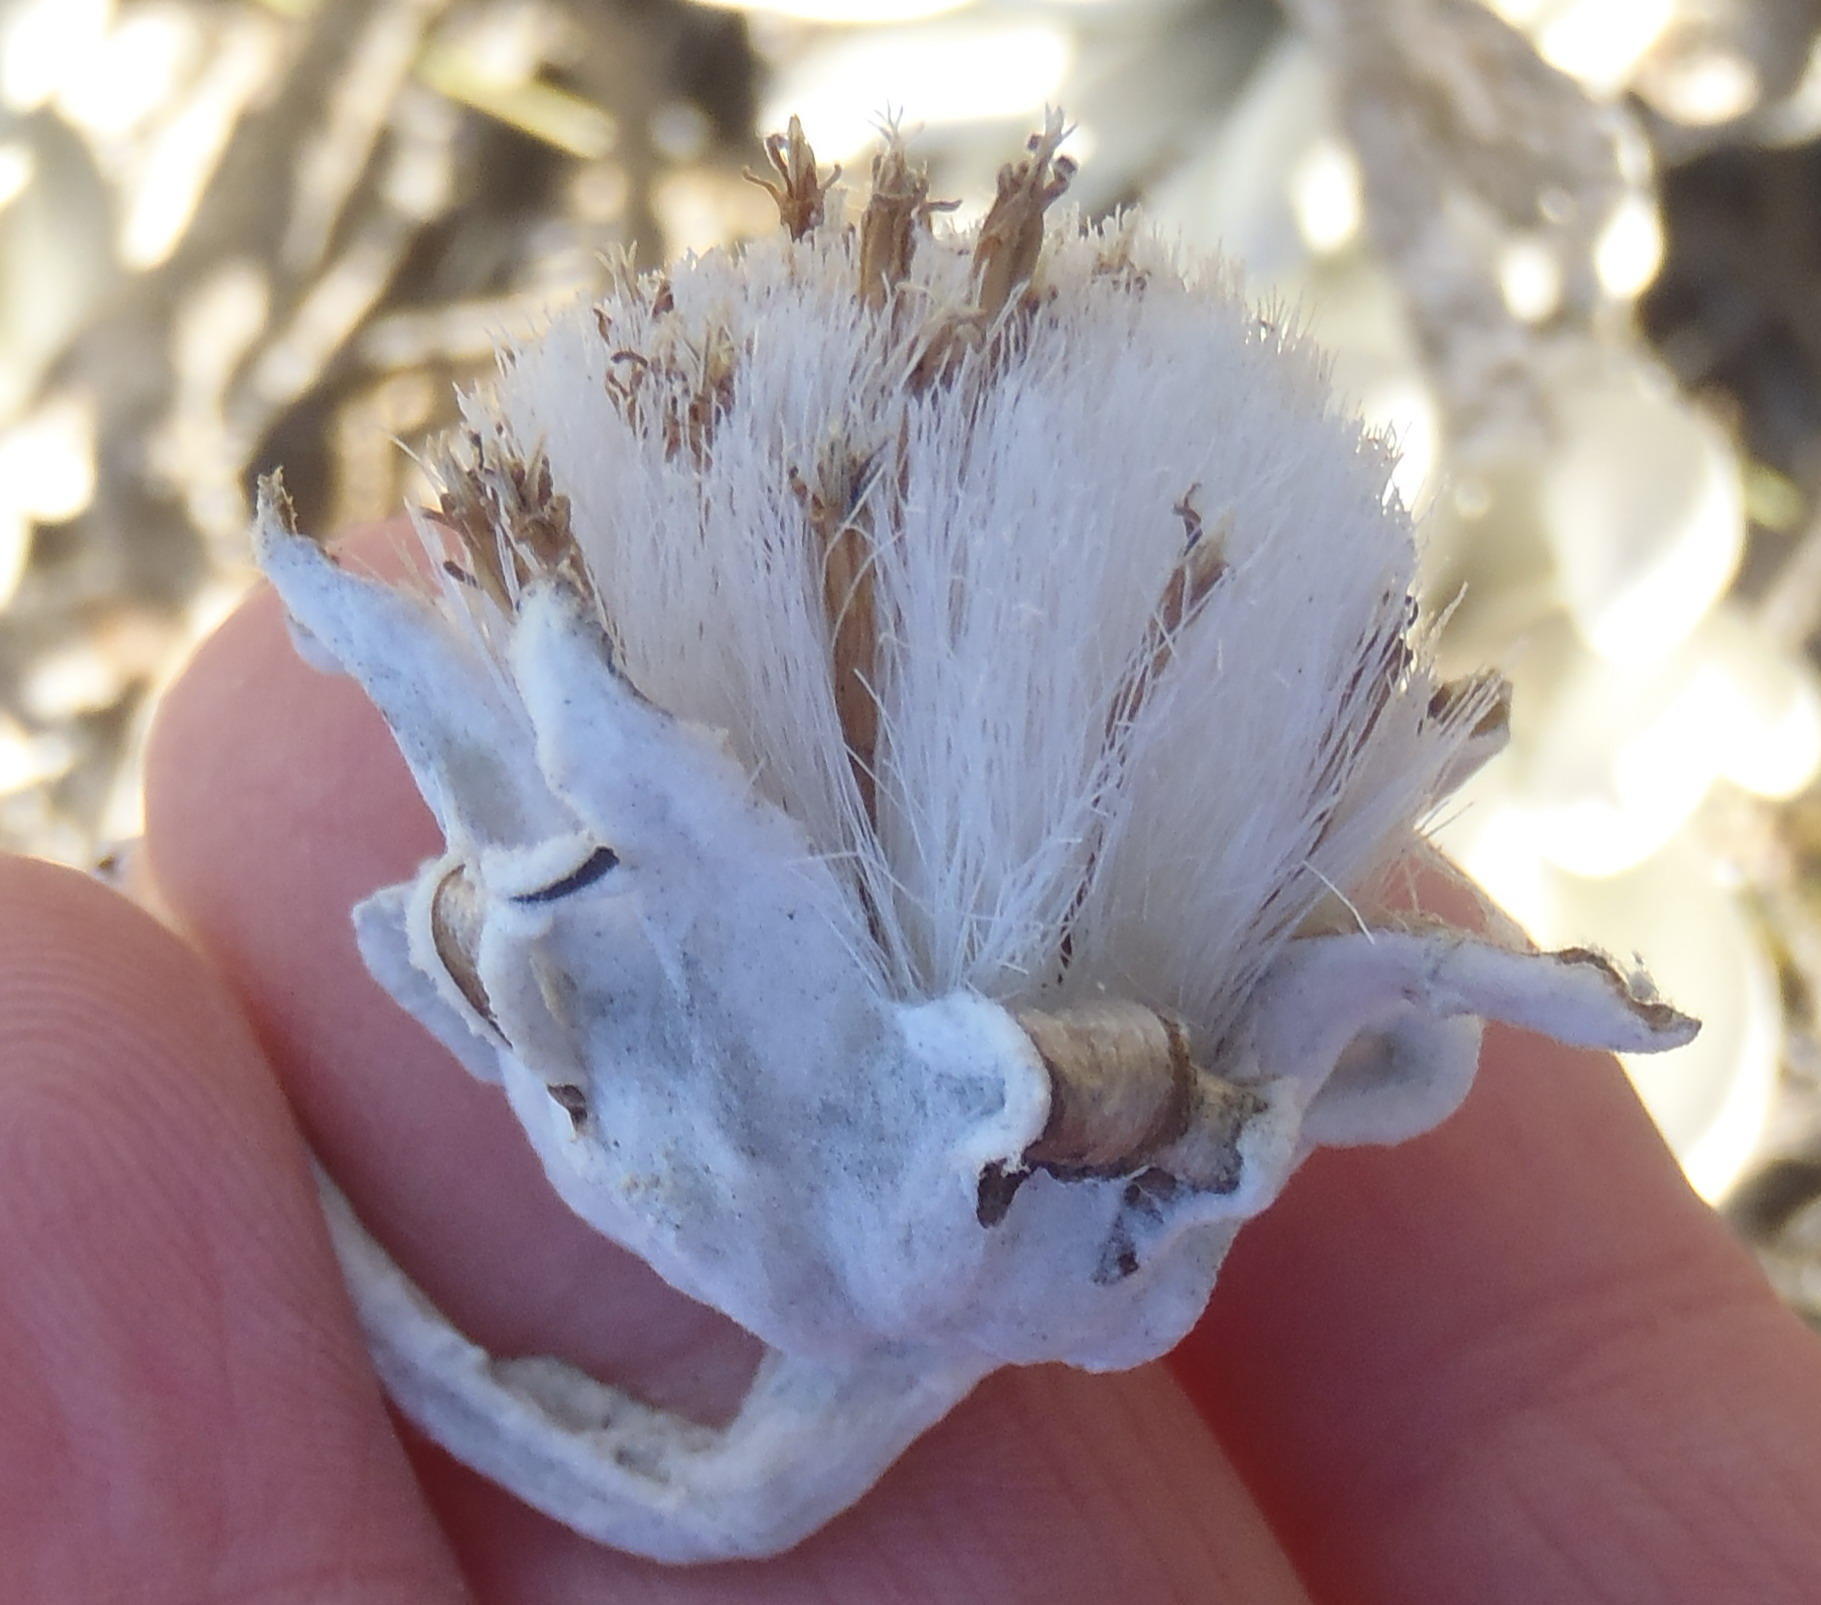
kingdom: Plantae
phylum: Tracheophyta
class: Magnoliopsida
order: Asterales
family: Asteraceae
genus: Caputia
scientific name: Caputia tomentosa
